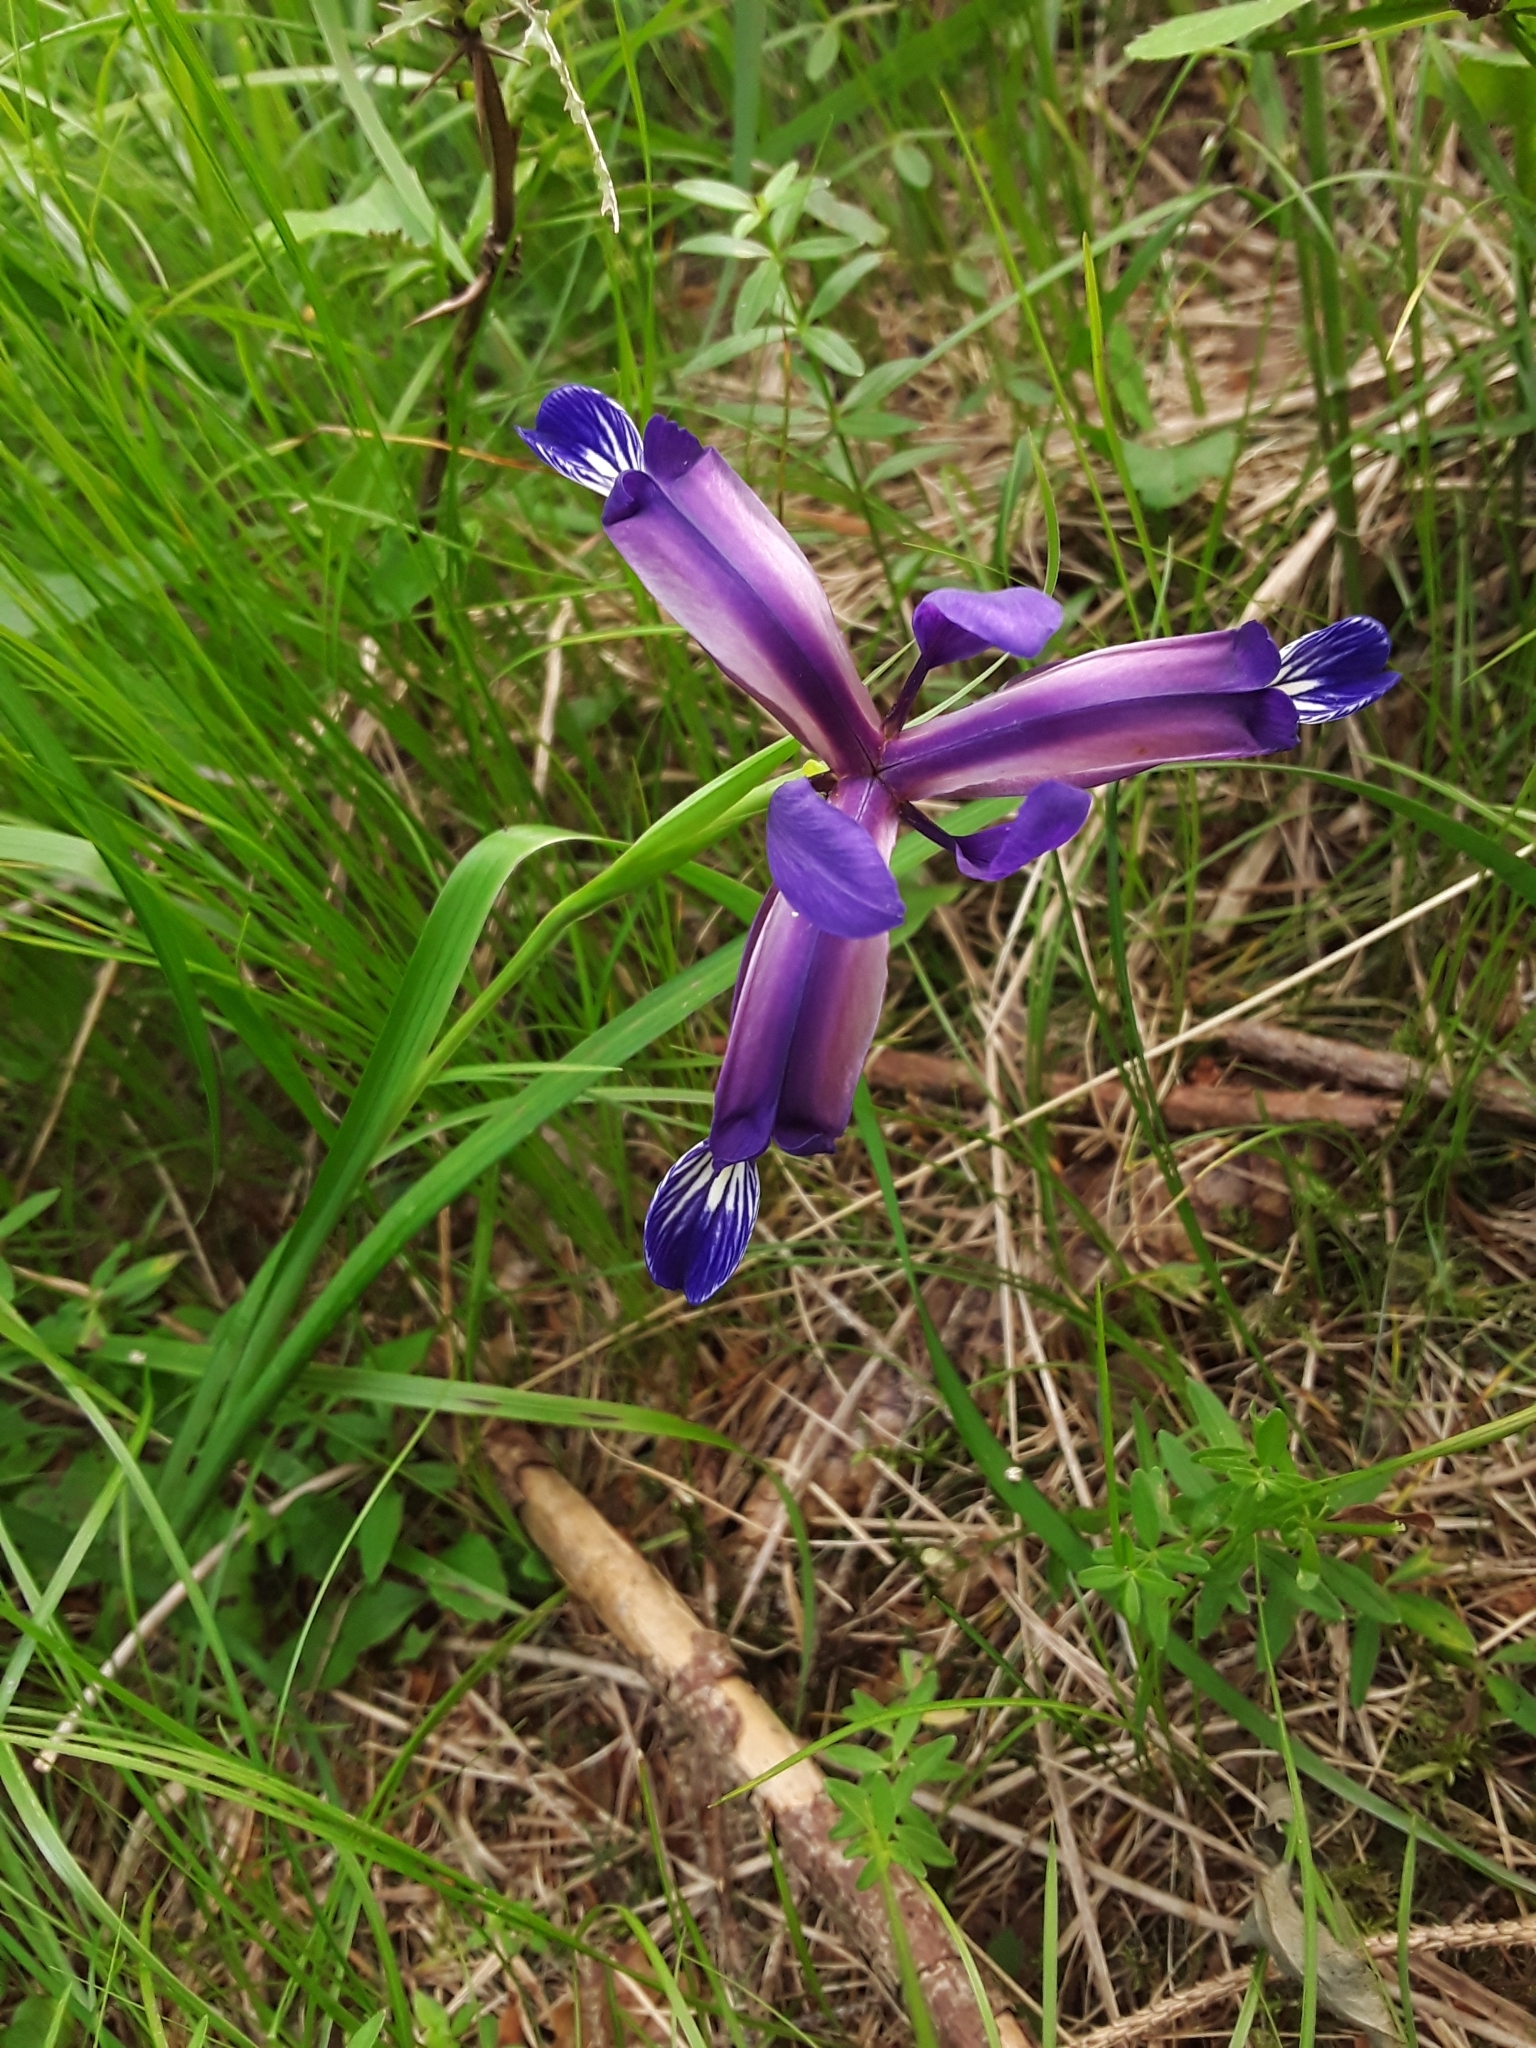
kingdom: Plantae
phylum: Tracheophyta
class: Liliopsida
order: Asparagales
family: Iridaceae
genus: Iris
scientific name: Iris graminea
